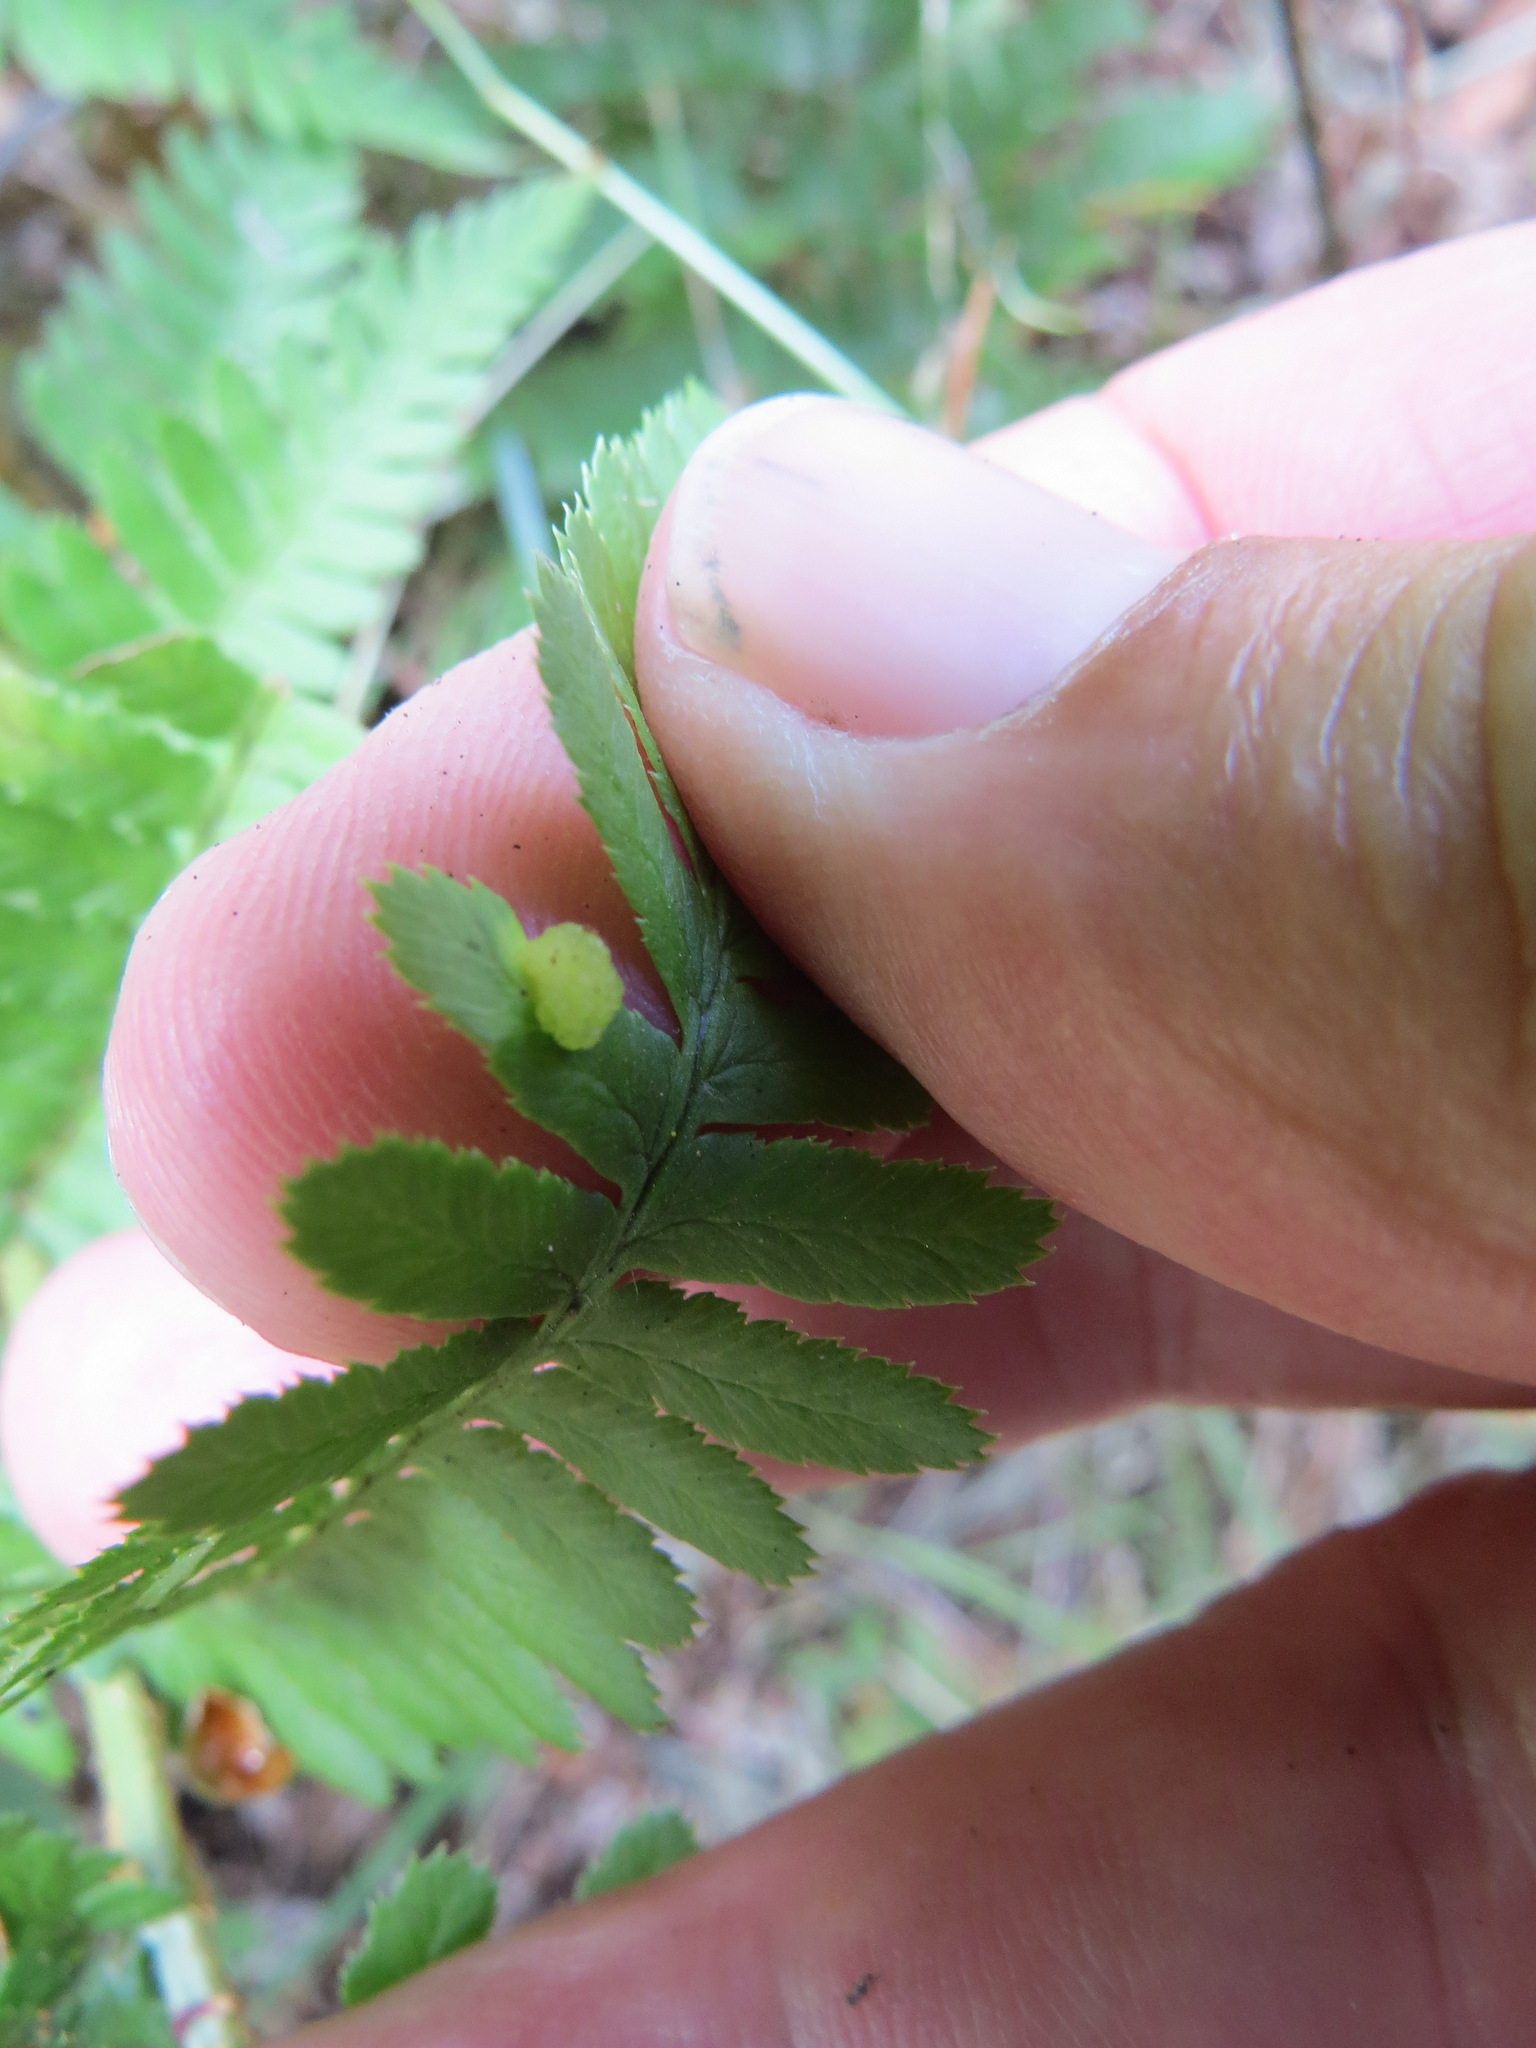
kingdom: Fungi
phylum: Ascomycota
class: Taphrinomycetes
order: Taphrinales
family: Taphrinaceae
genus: Taphrina
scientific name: Taphrina californica
